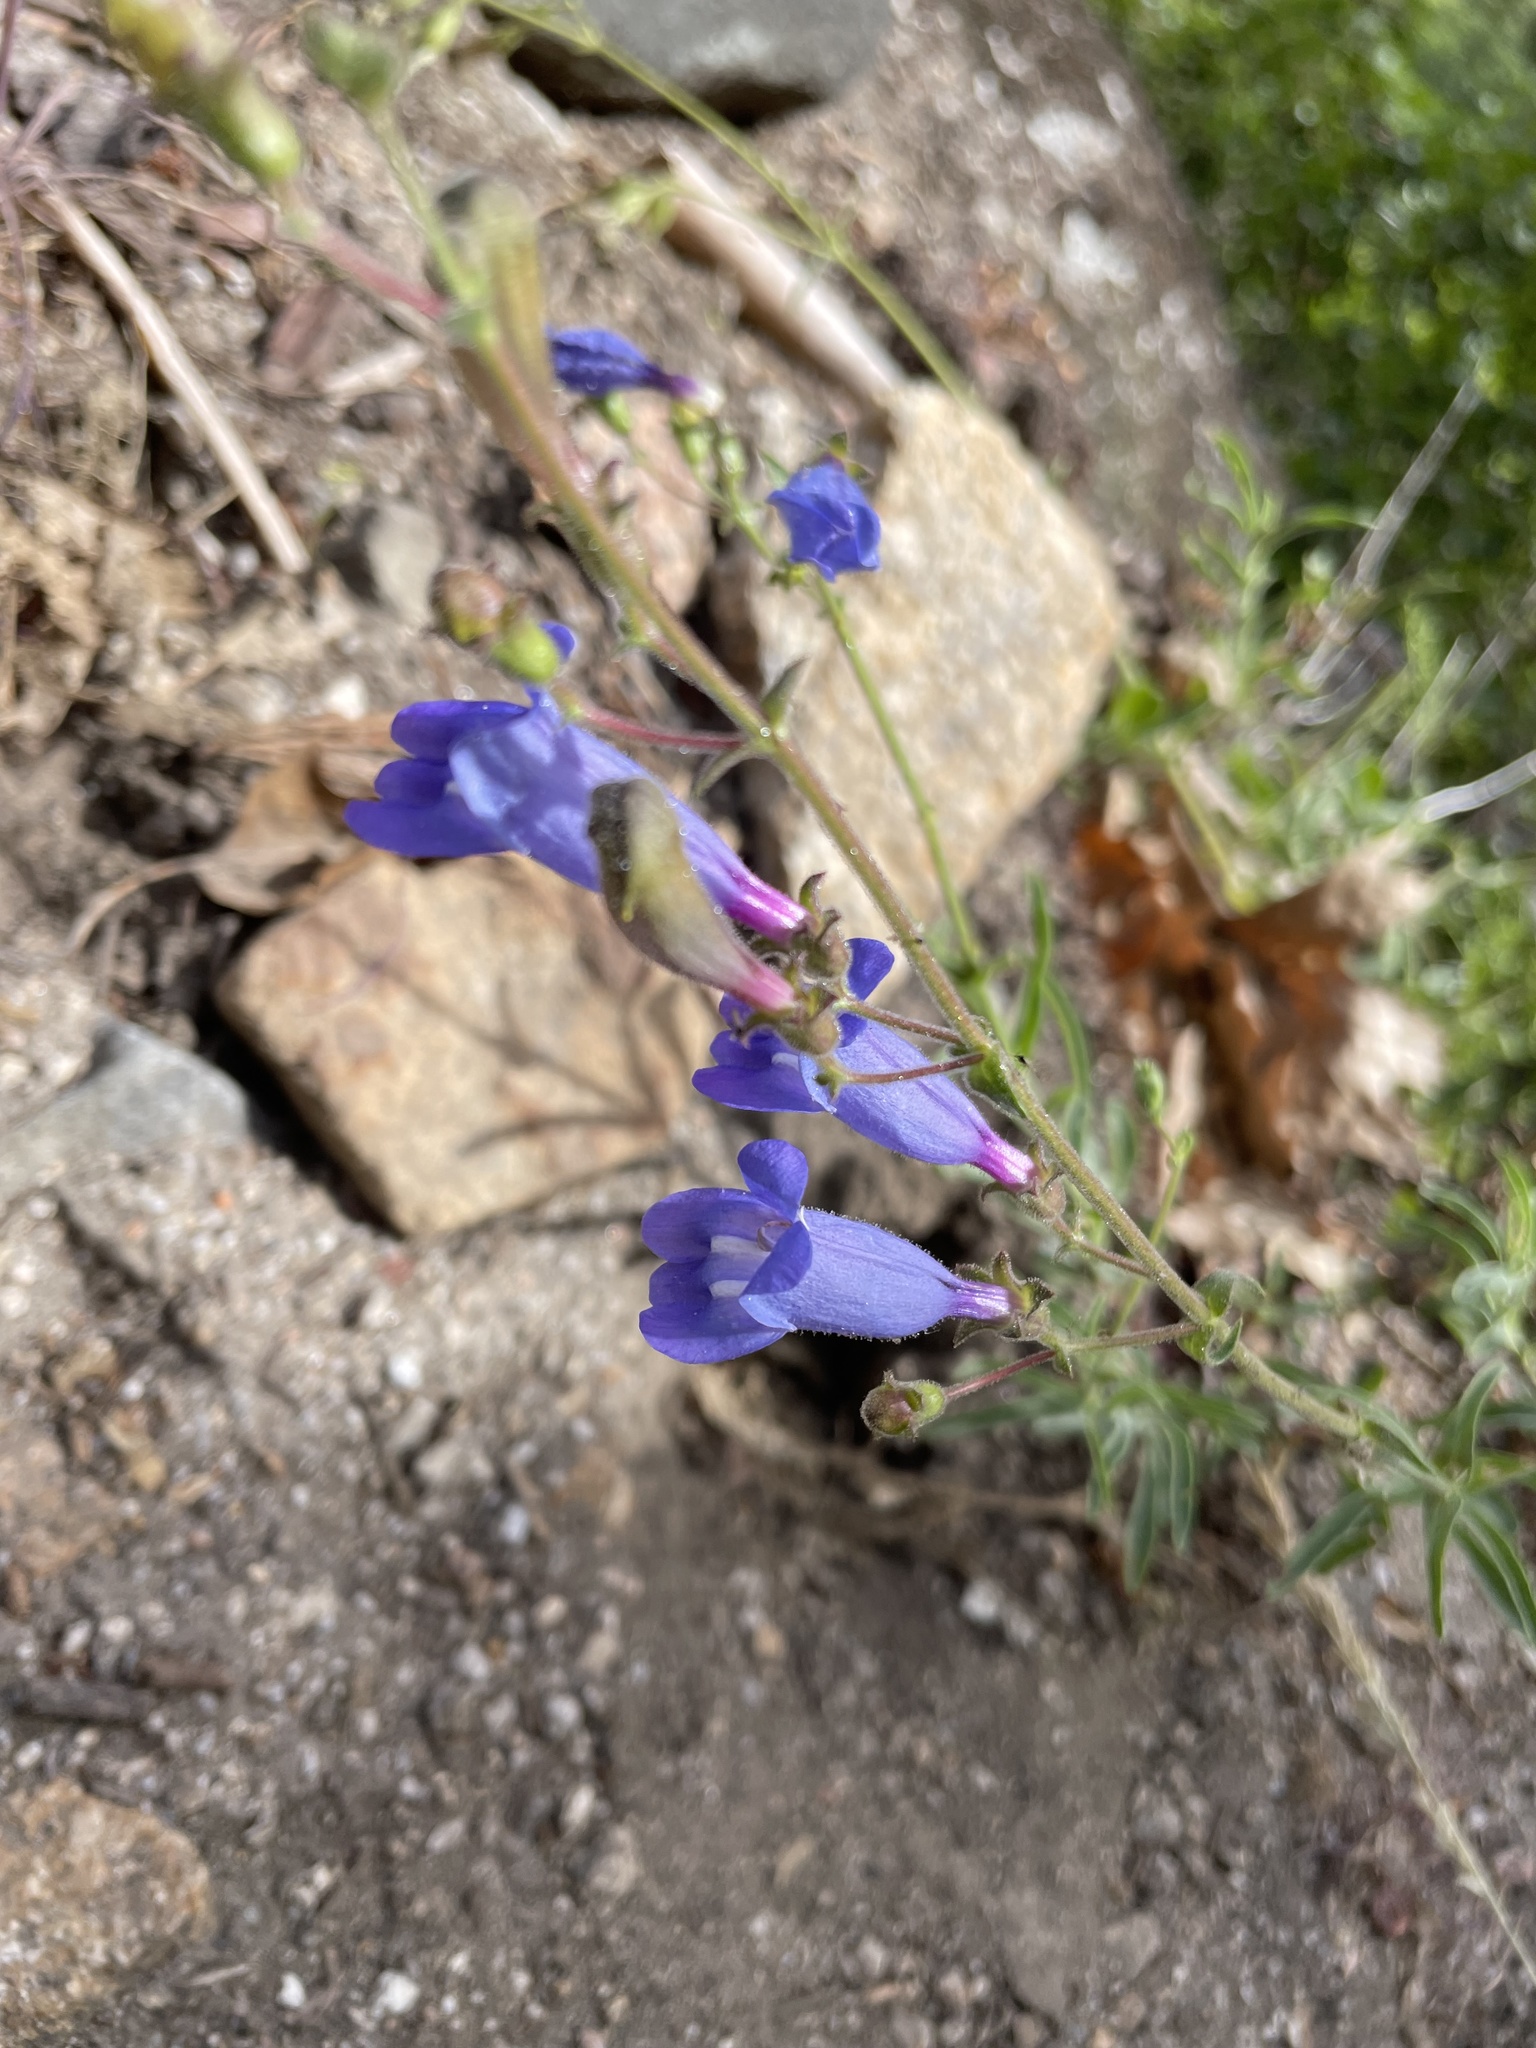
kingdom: Plantae
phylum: Tracheophyta
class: Magnoliopsida
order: Lamiales
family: Plantaginaceae
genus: Penstemon
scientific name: Penstemon laetus
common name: Gay penstemon
